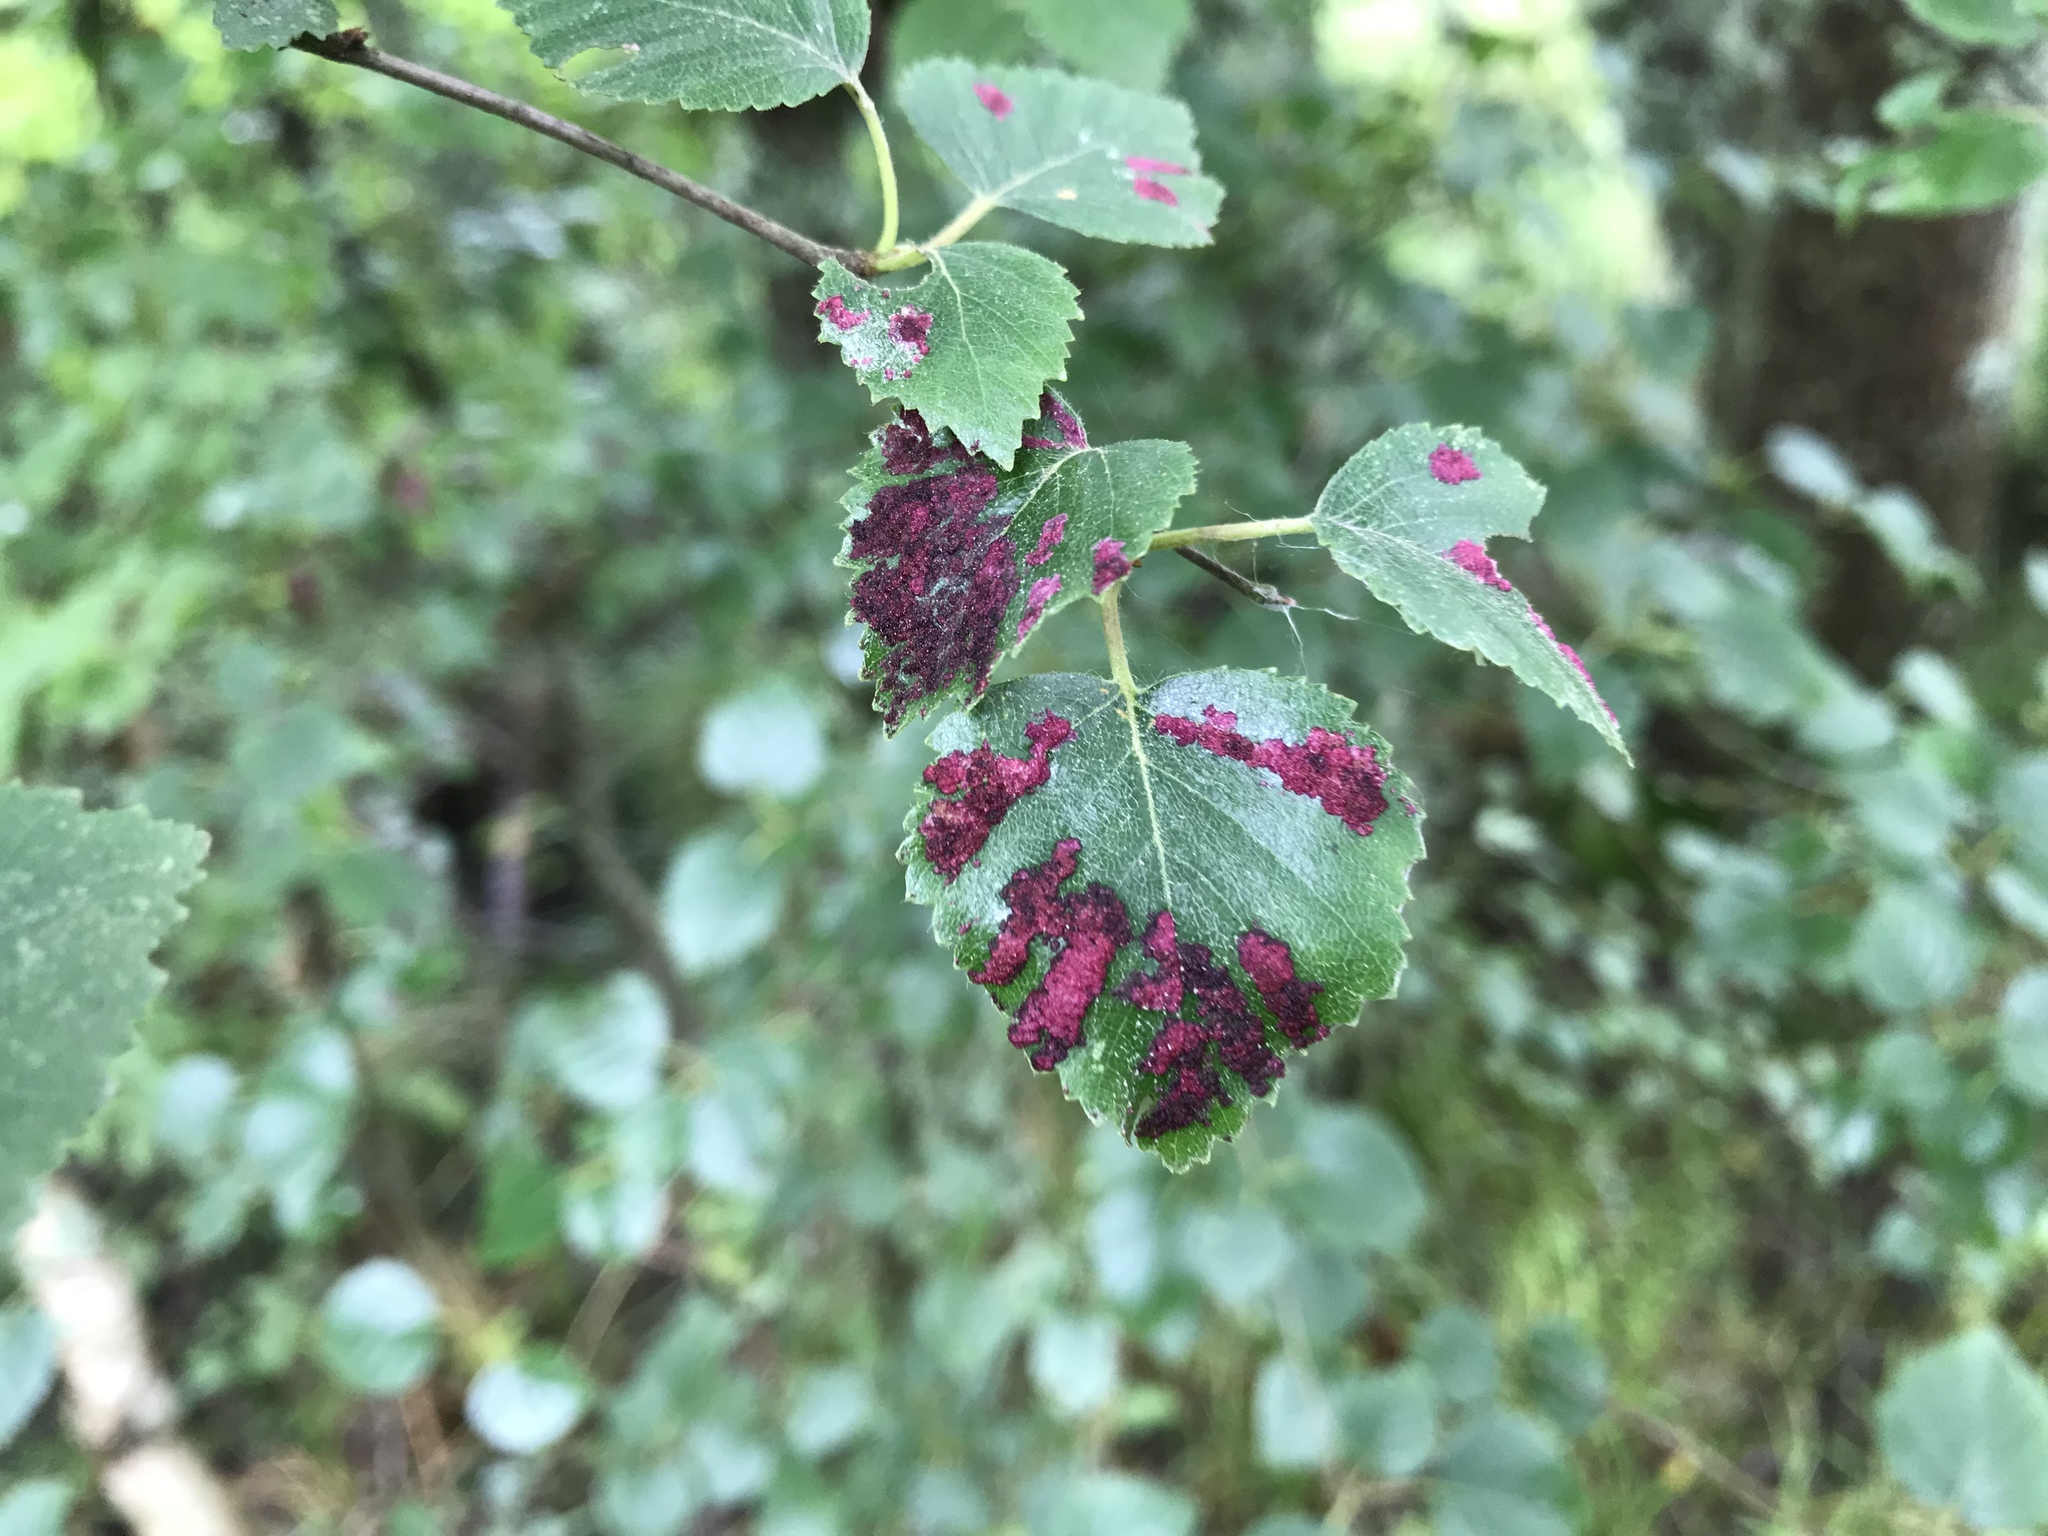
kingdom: Animalia
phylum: Arthropoda
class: Arachnida
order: Trombidiformes
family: Eriophyidae
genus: Acalitus
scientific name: Acalitus longisetosus
